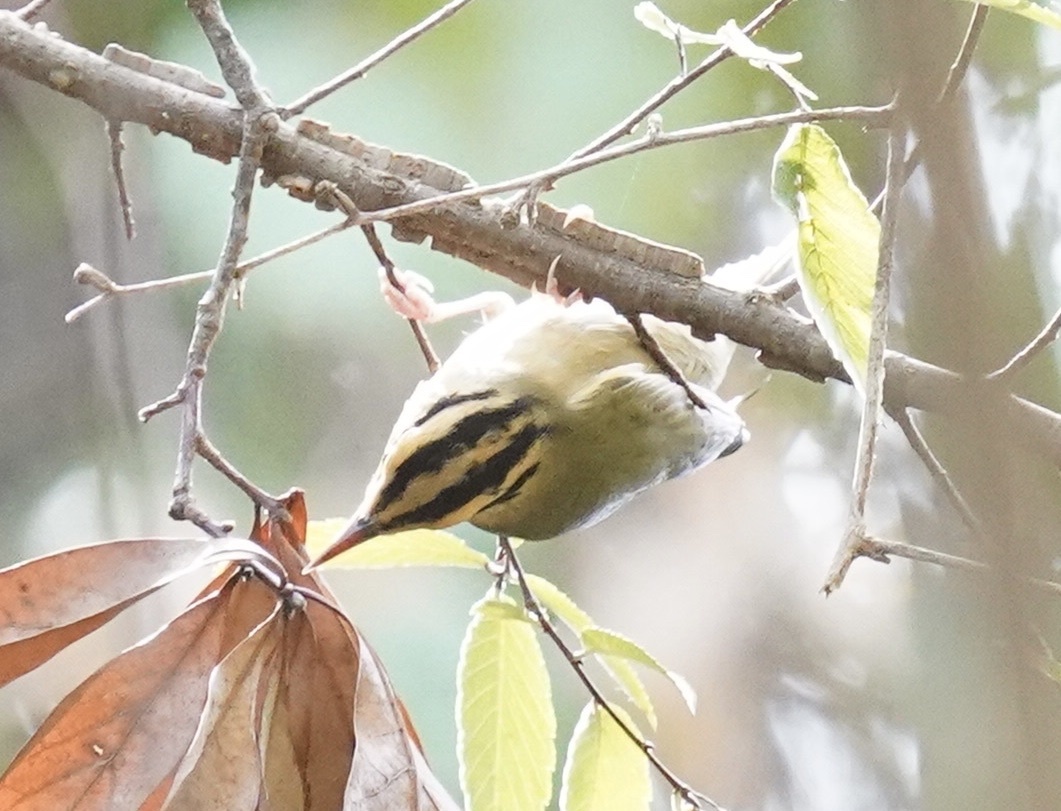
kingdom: Animalia
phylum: Chordata
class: Aves
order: Passeriformes
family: Parulidae
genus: Helmitheros
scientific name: Helmitheros vermivorum
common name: Worm-eating warbler
